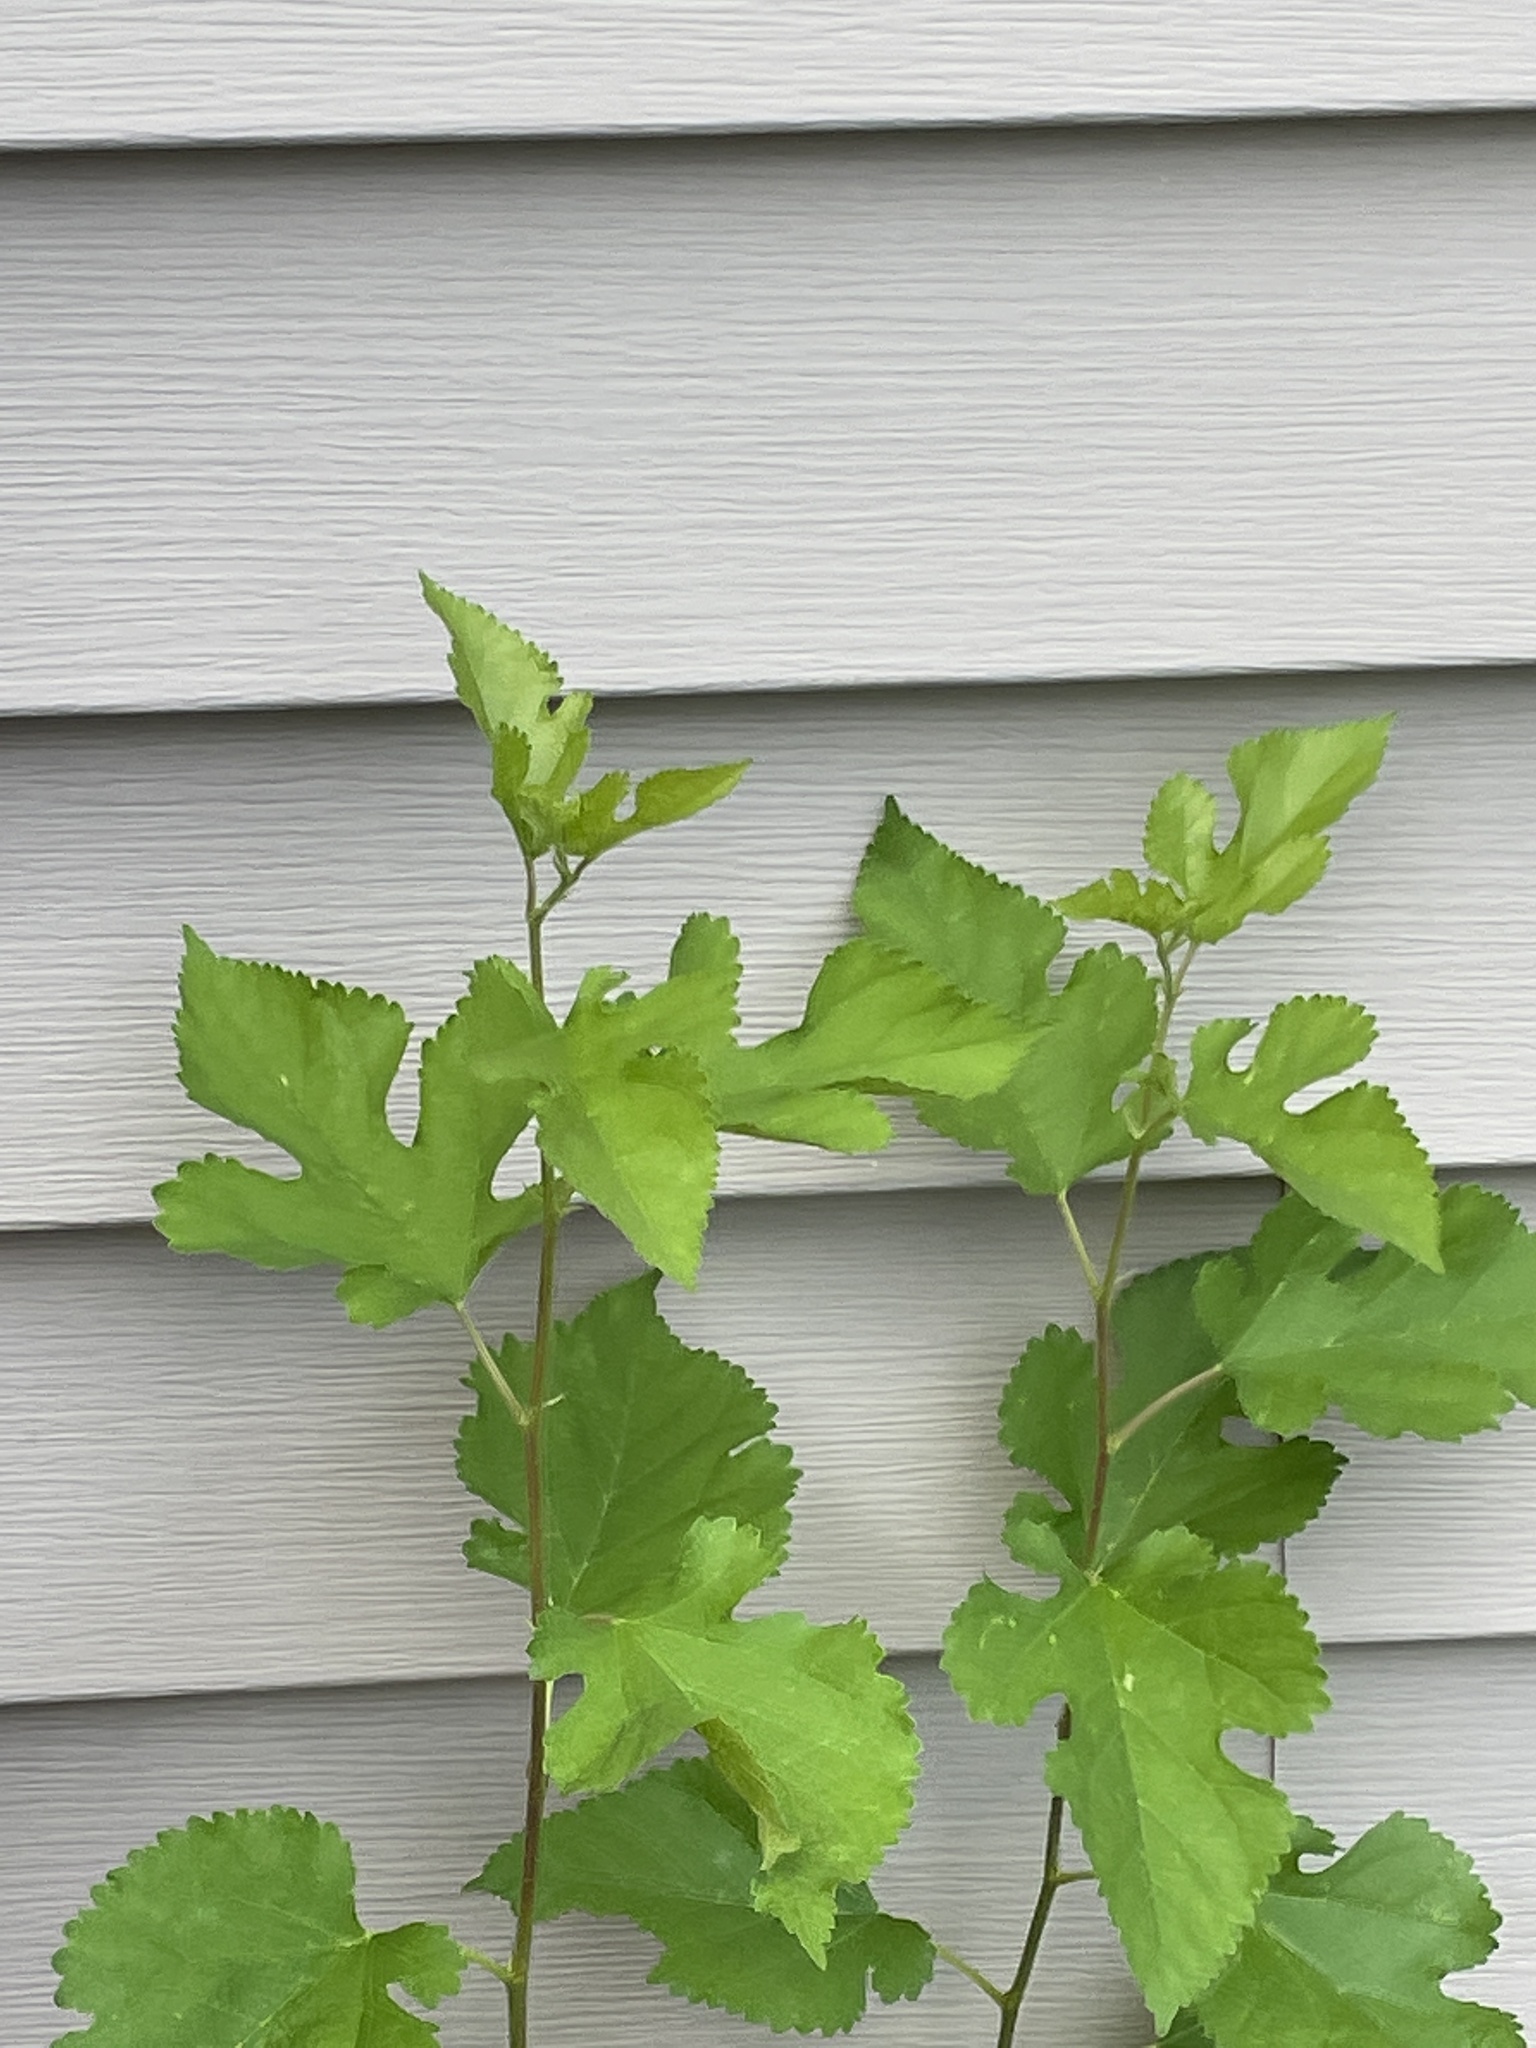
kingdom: Plantae
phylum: Tracheophyta
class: Magnoliopsida
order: Rosales
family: Moraceae
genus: Morus
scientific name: Morus alba
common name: White mulberry
